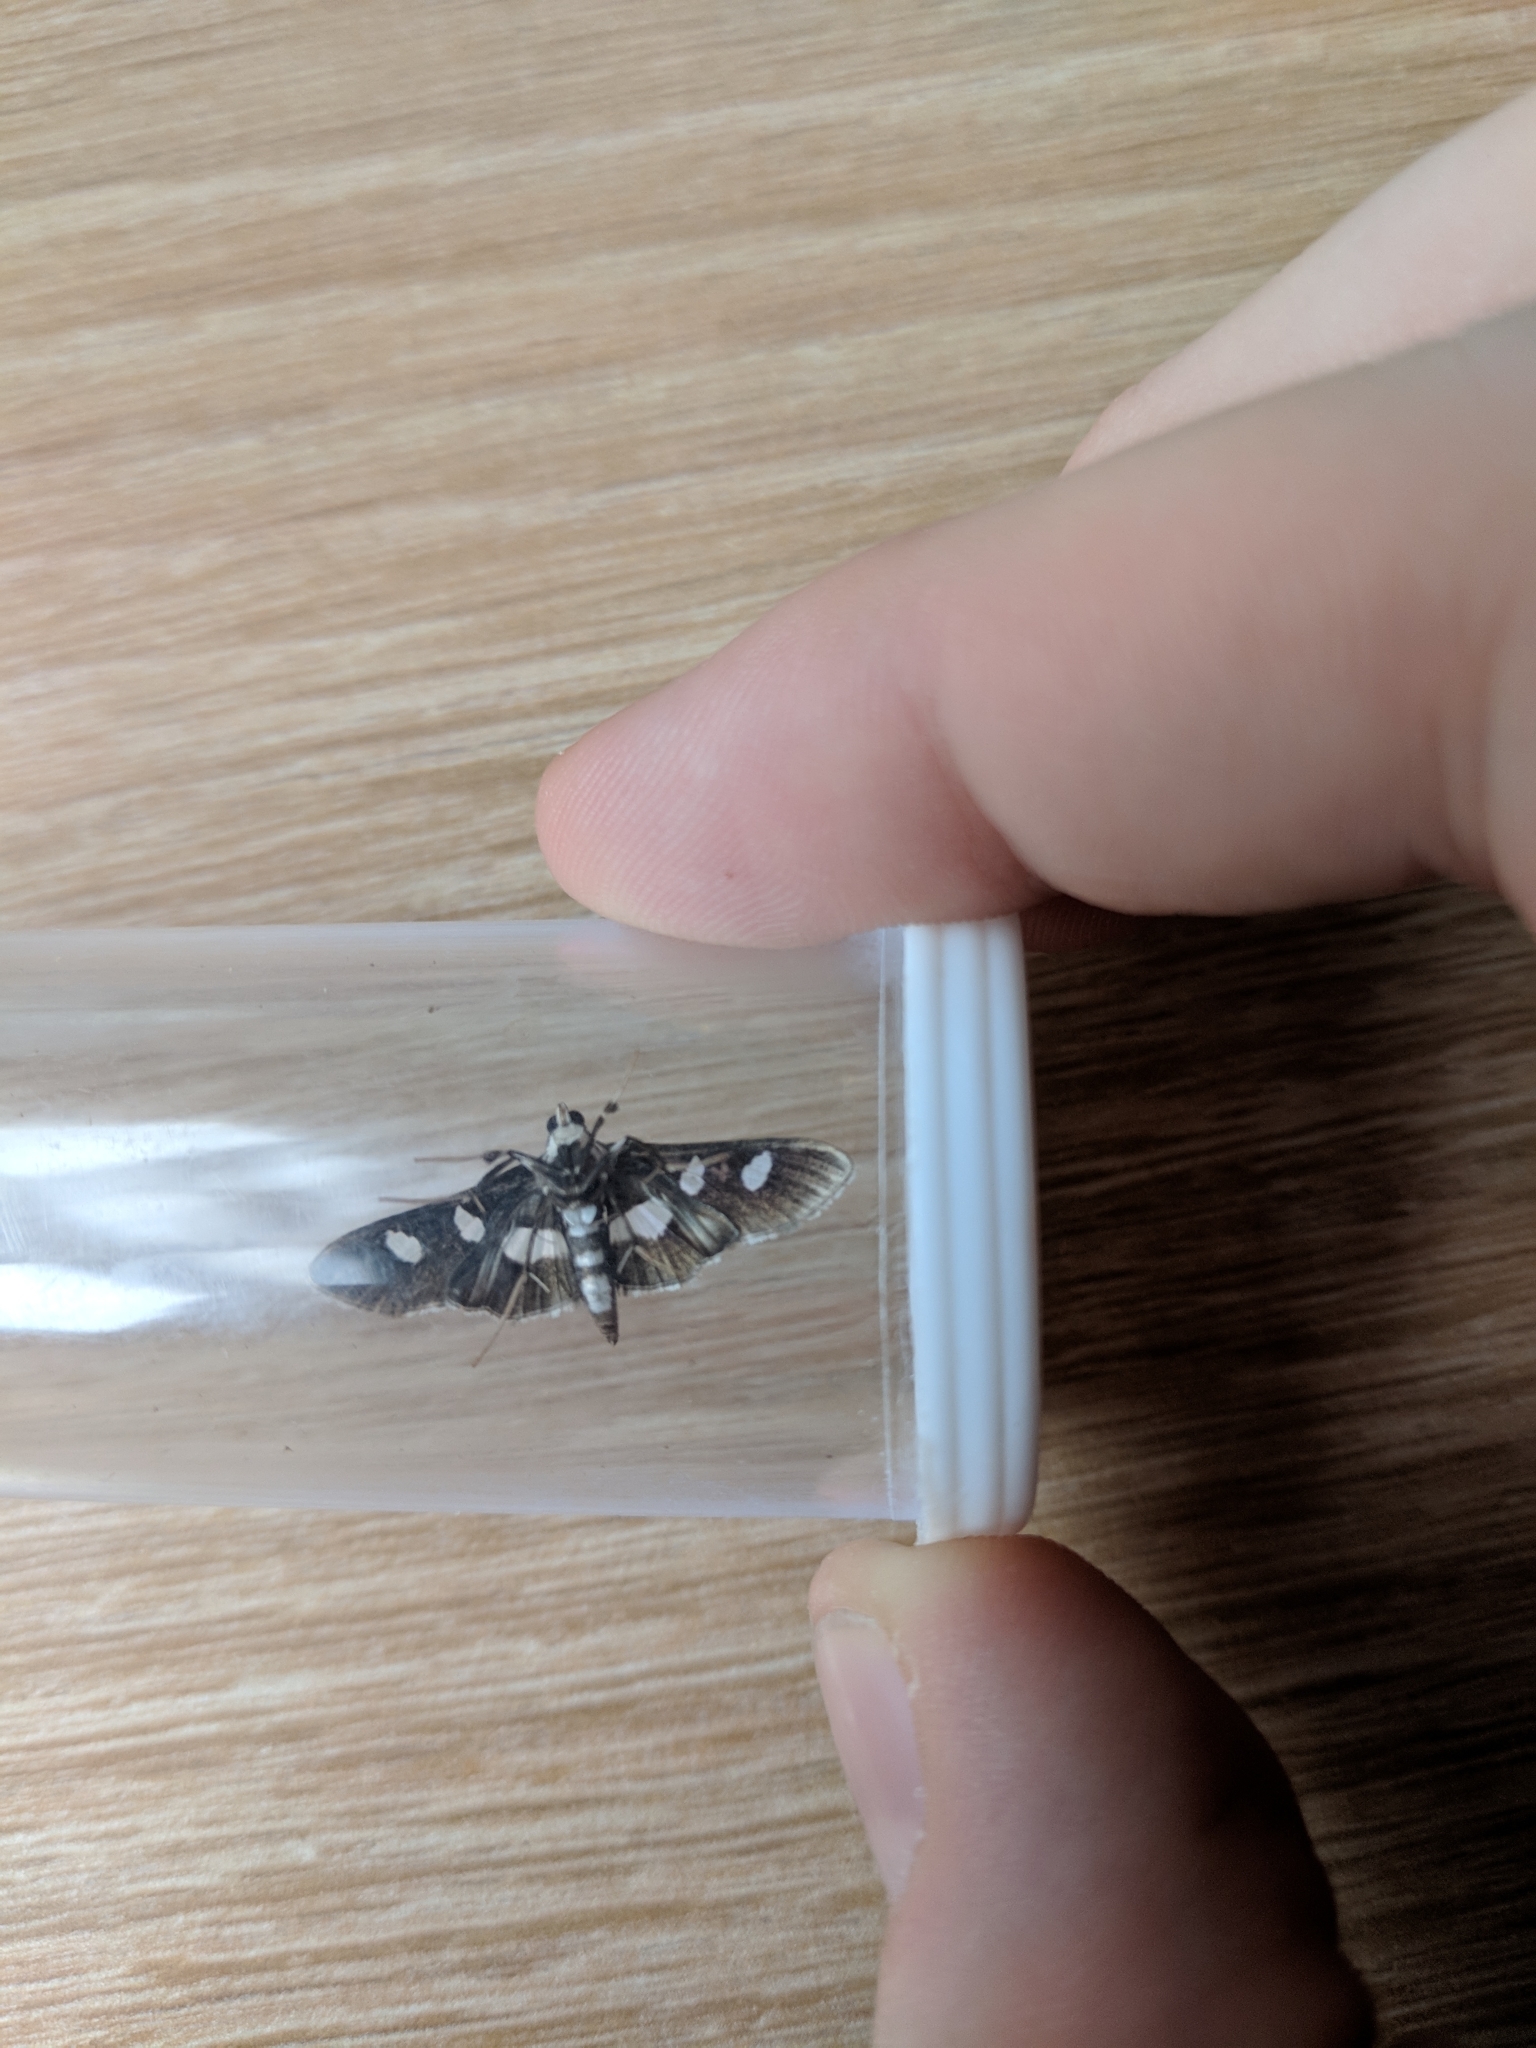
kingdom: Animalia
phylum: Arthropoda
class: Insecta
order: Lepidoptera
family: Crambidae
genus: Desmia
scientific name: Desmia funeralis
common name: Grape leaf folder moth
